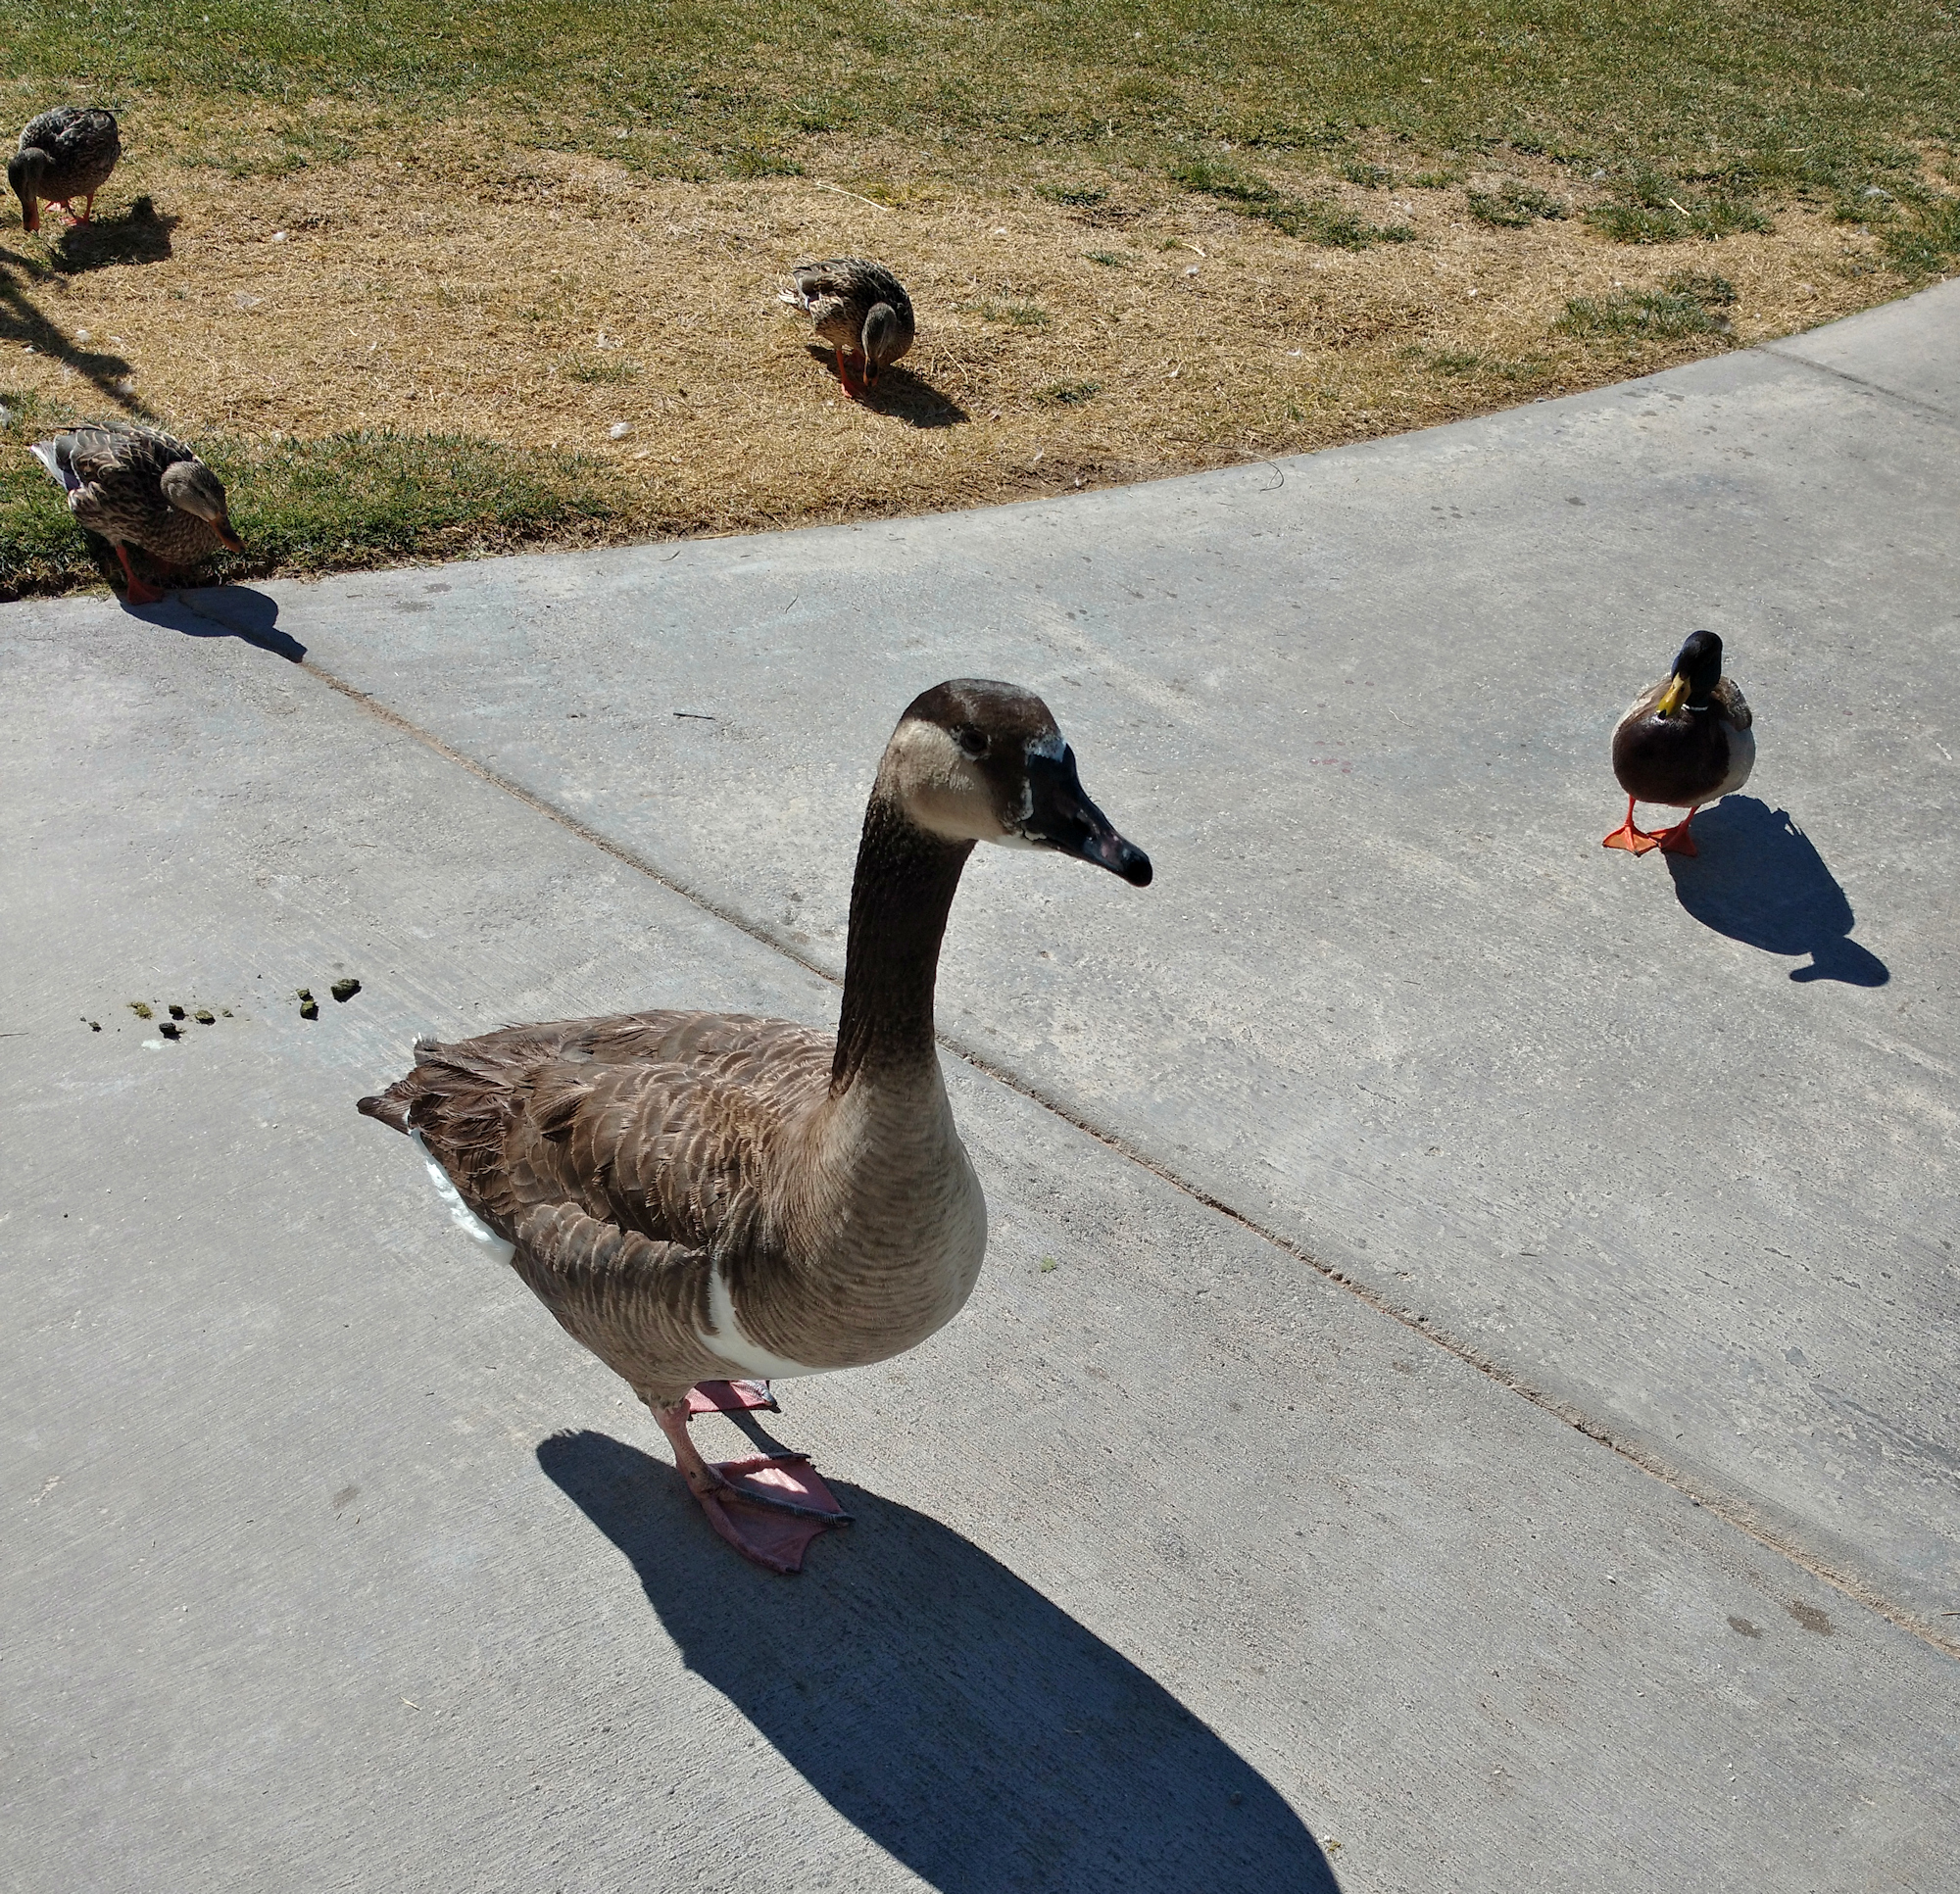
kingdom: Animalia
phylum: Chordata
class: Aves
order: Anseriformes
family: Anatidae
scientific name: Anatidae
